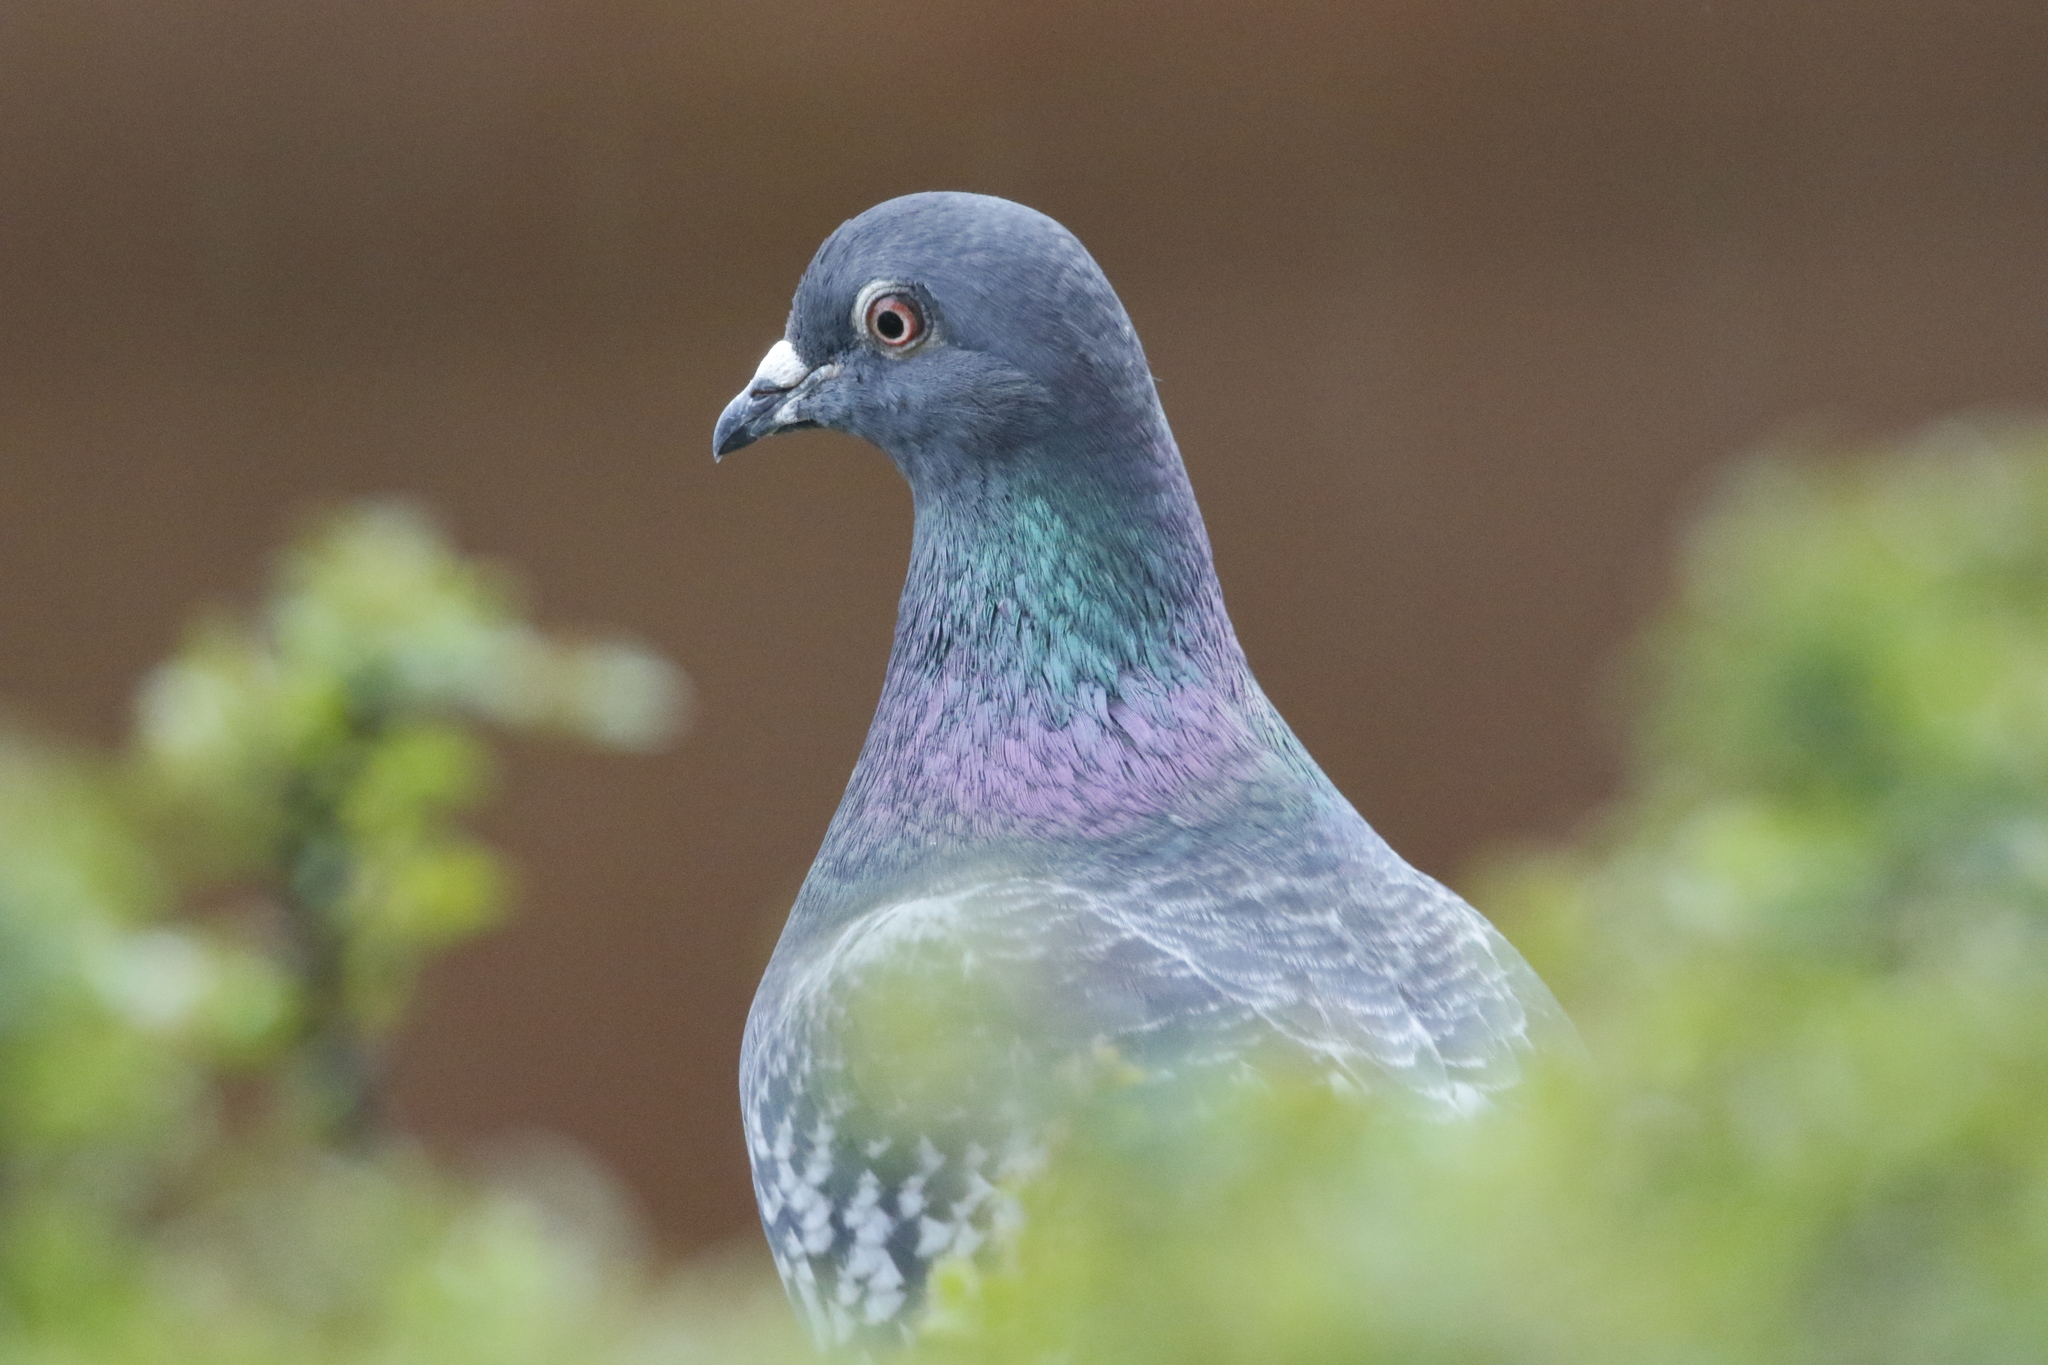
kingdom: Animalia
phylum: Chordata
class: Aves
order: Columbiformes
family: Columbidae
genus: Columba
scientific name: Columba livia
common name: Rock pigeon
